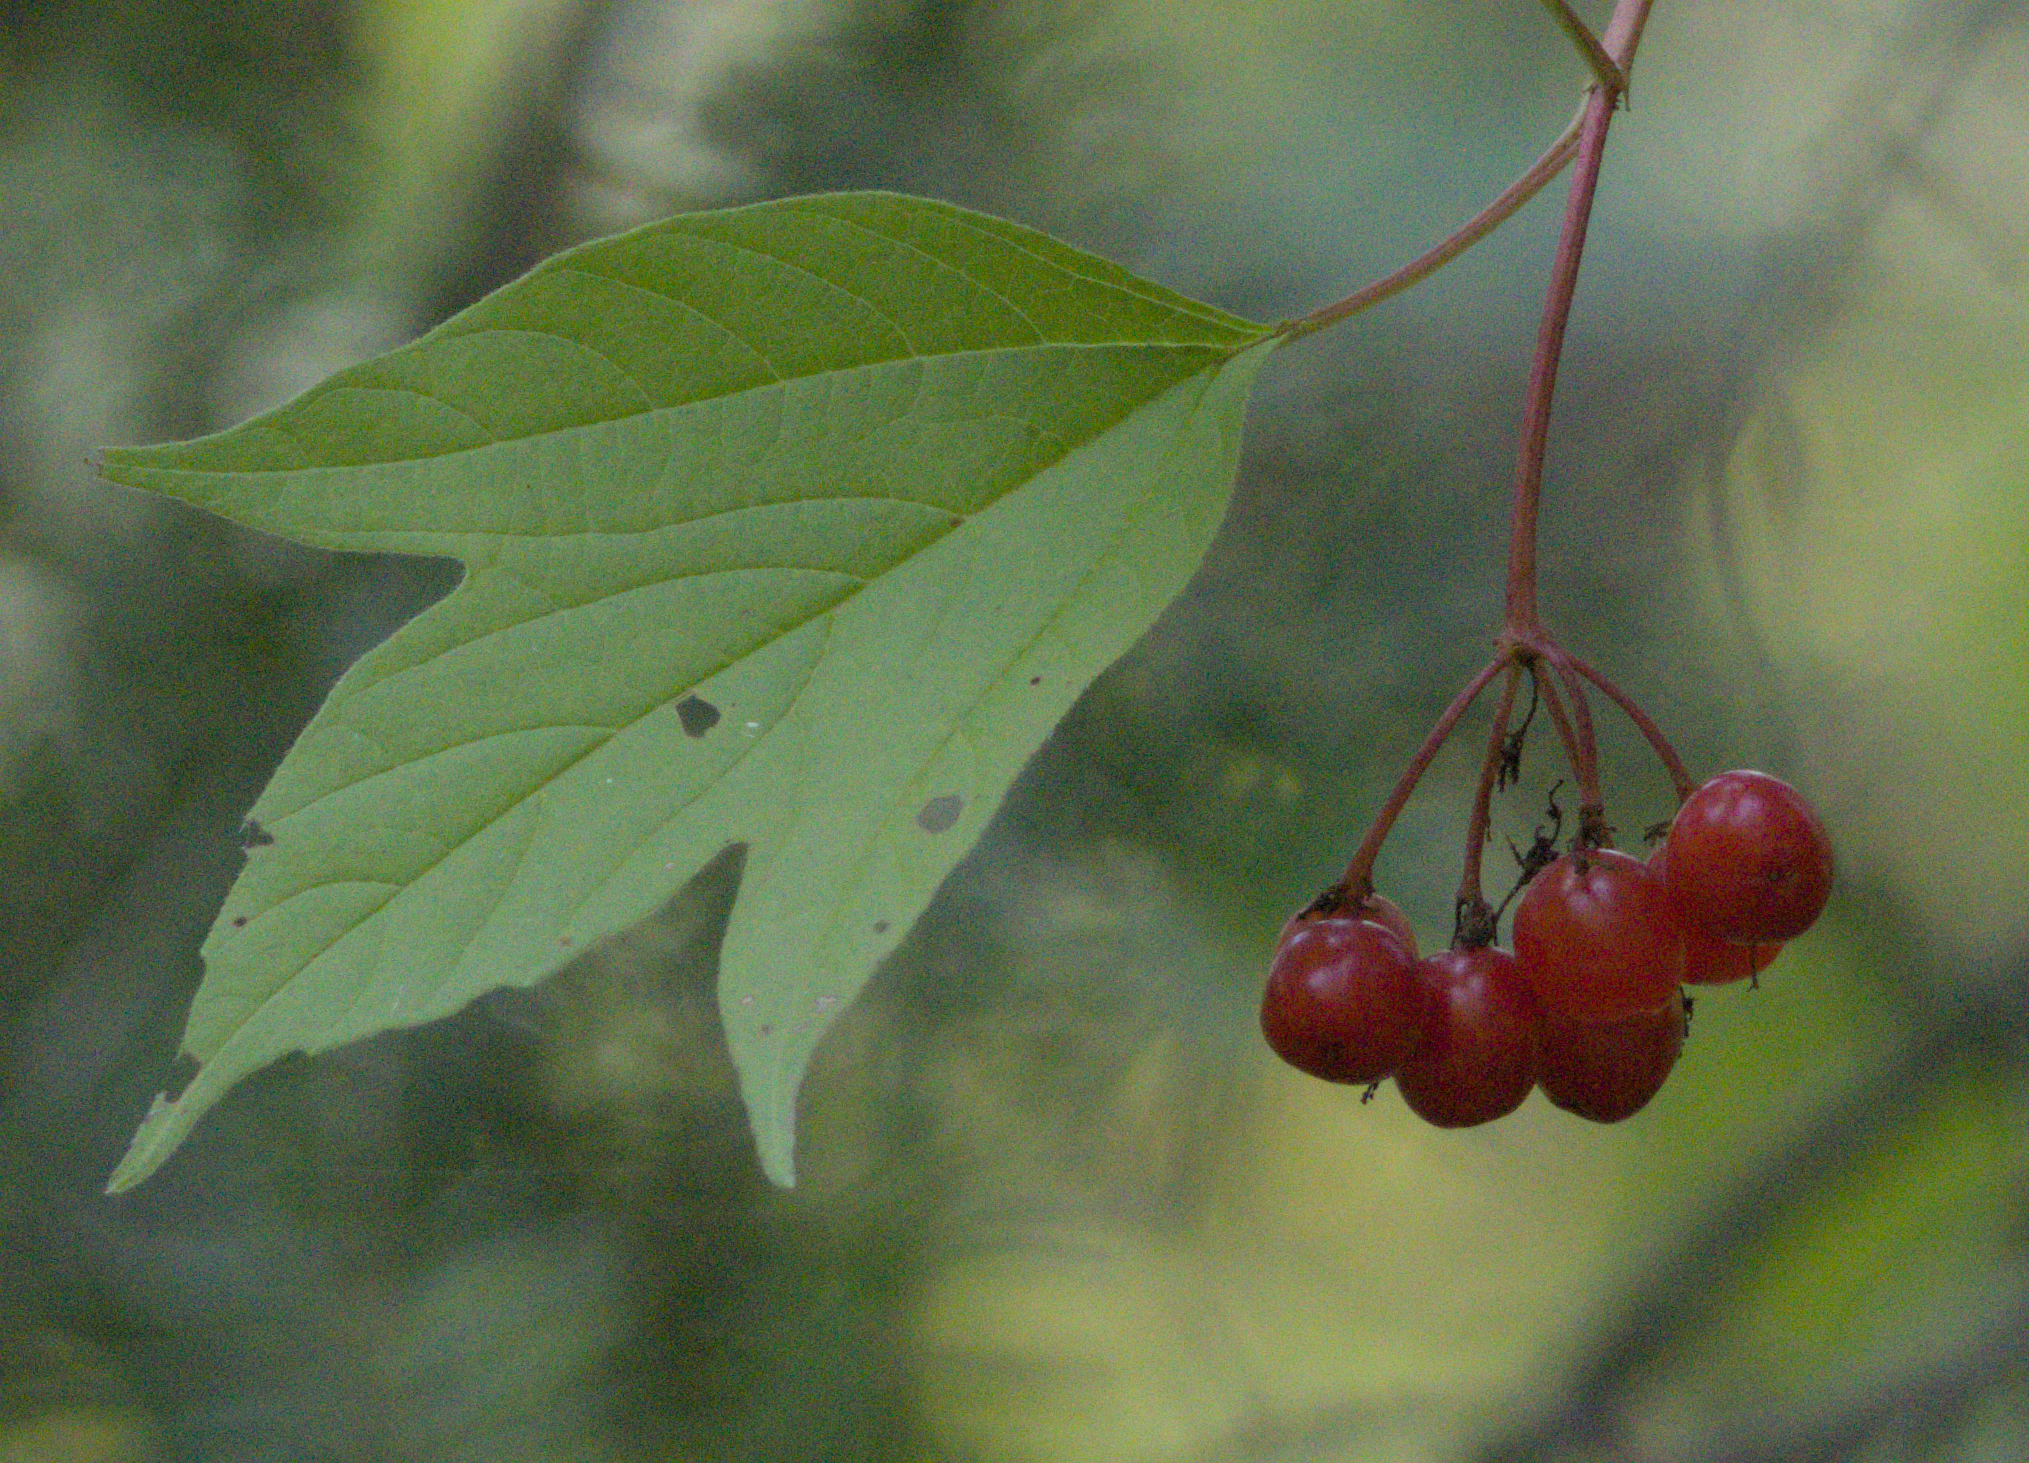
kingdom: Plantae
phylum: Tracheophyta
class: Magnoliopsida
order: Dipsacales
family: Viburnaceae
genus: Viburnum
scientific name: Viburnum trilobum
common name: American cranberrybush
